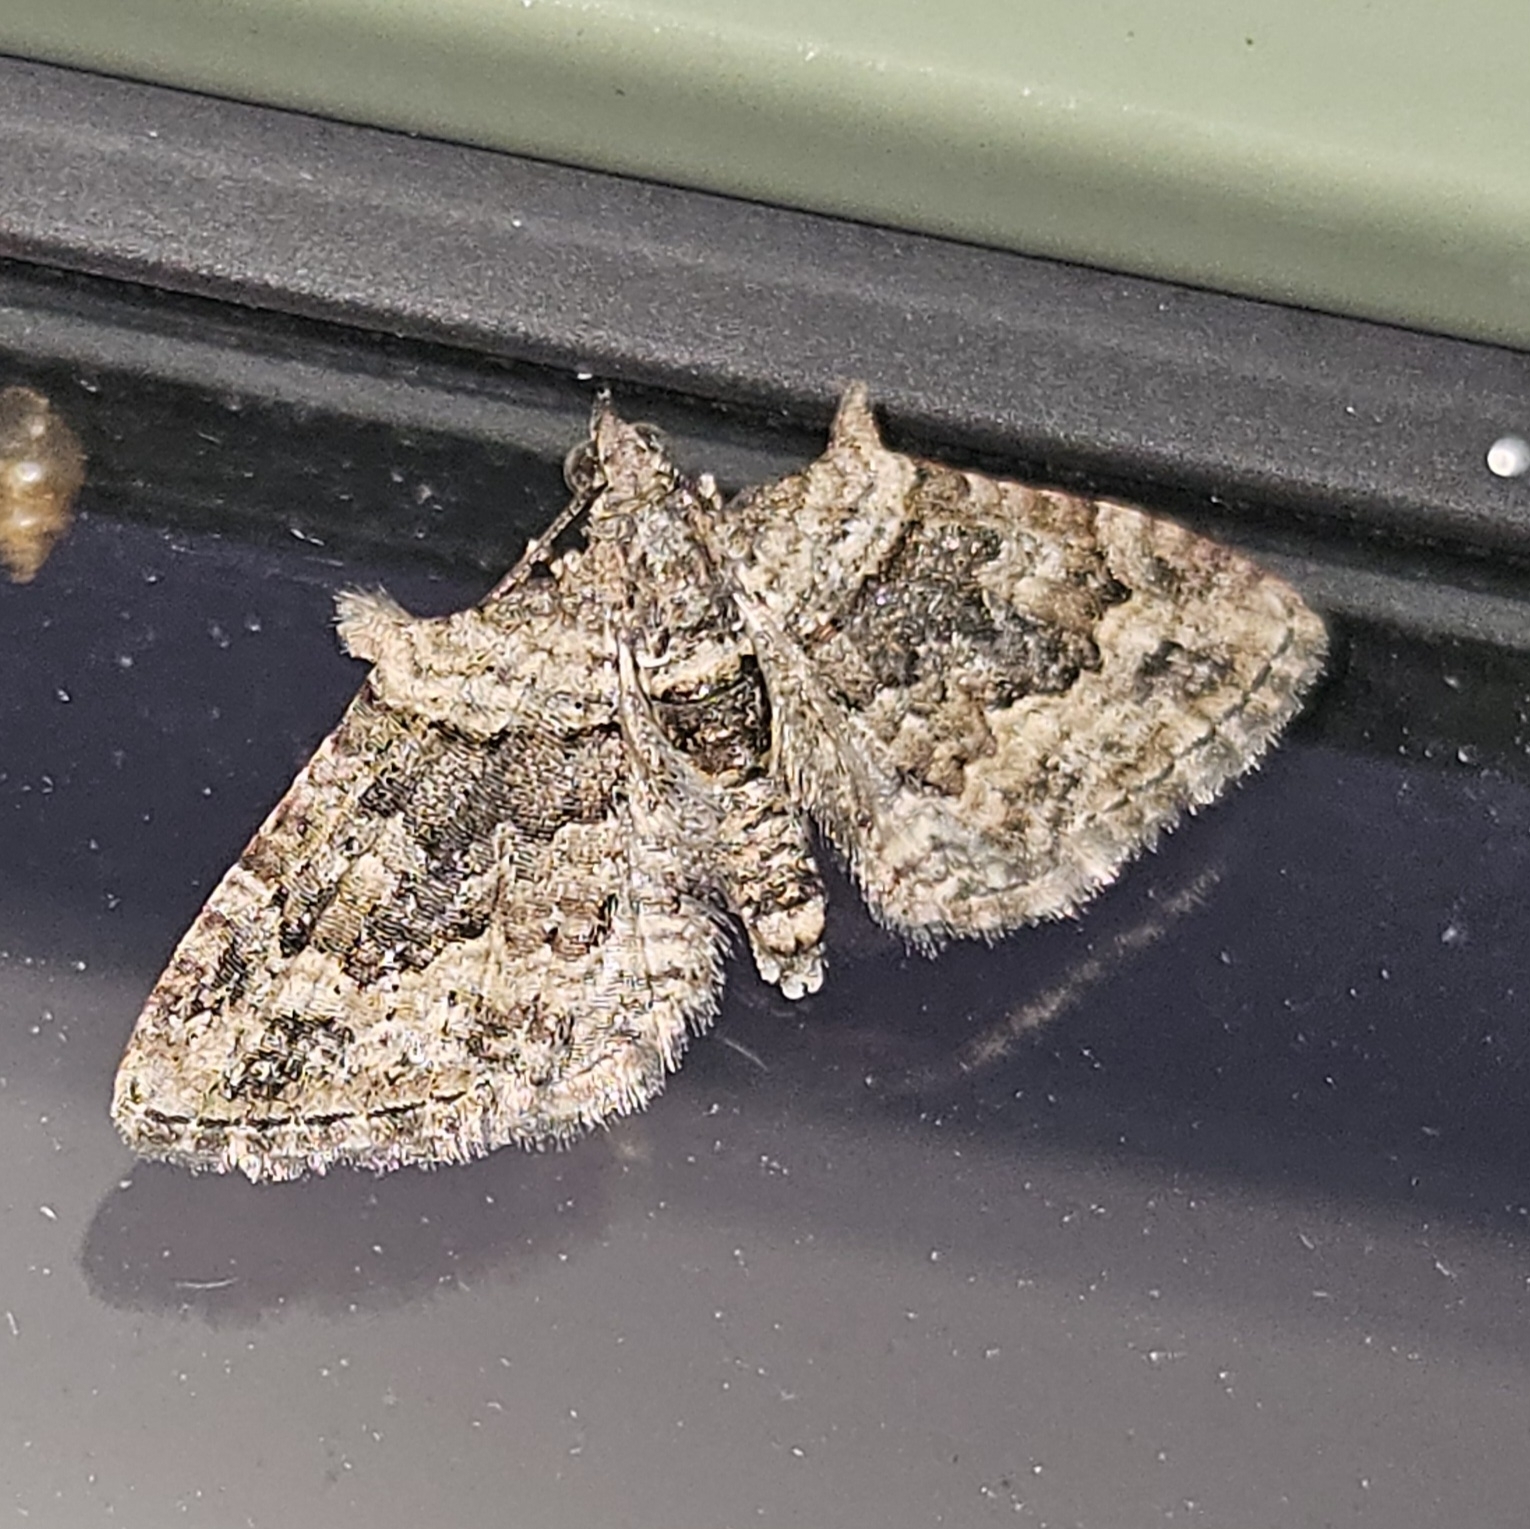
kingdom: Animalia
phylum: Arthropoda
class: Insecta
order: Lepidoptera
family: Geometridae
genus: Phrissogonus
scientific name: Phrissogonus laticostata
